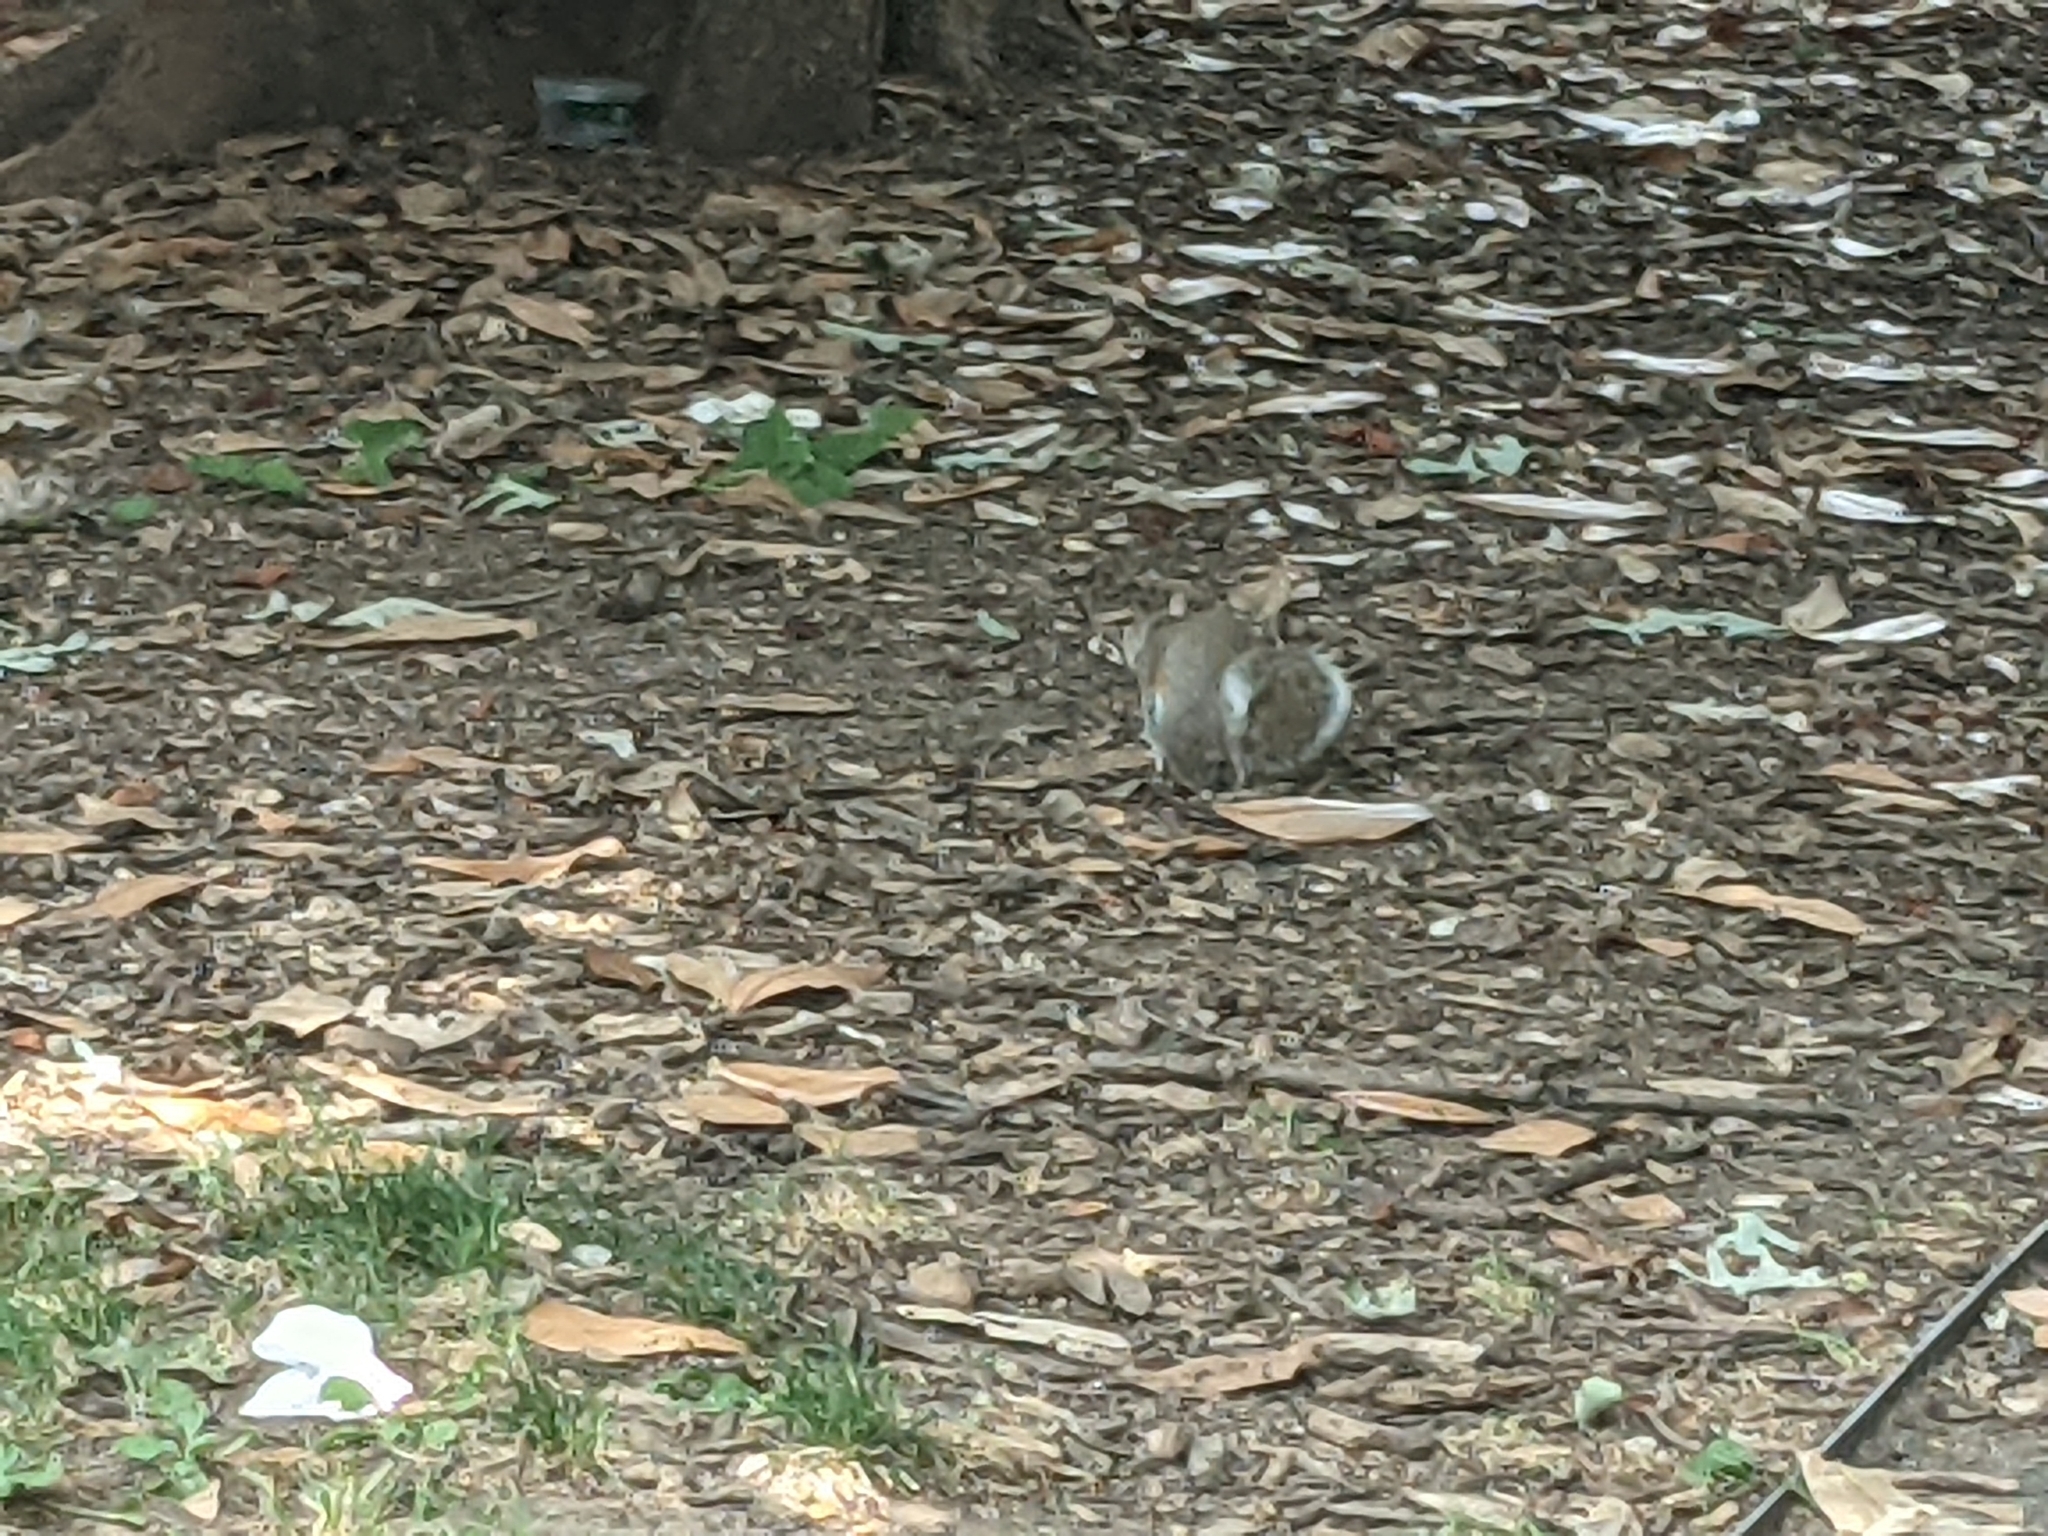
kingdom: Animalia
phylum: Chordata
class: Mammalia
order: Rodentia
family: Sciuridae
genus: Sciurus
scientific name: Sciurus carolinensis
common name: Eastern gray squirrel
